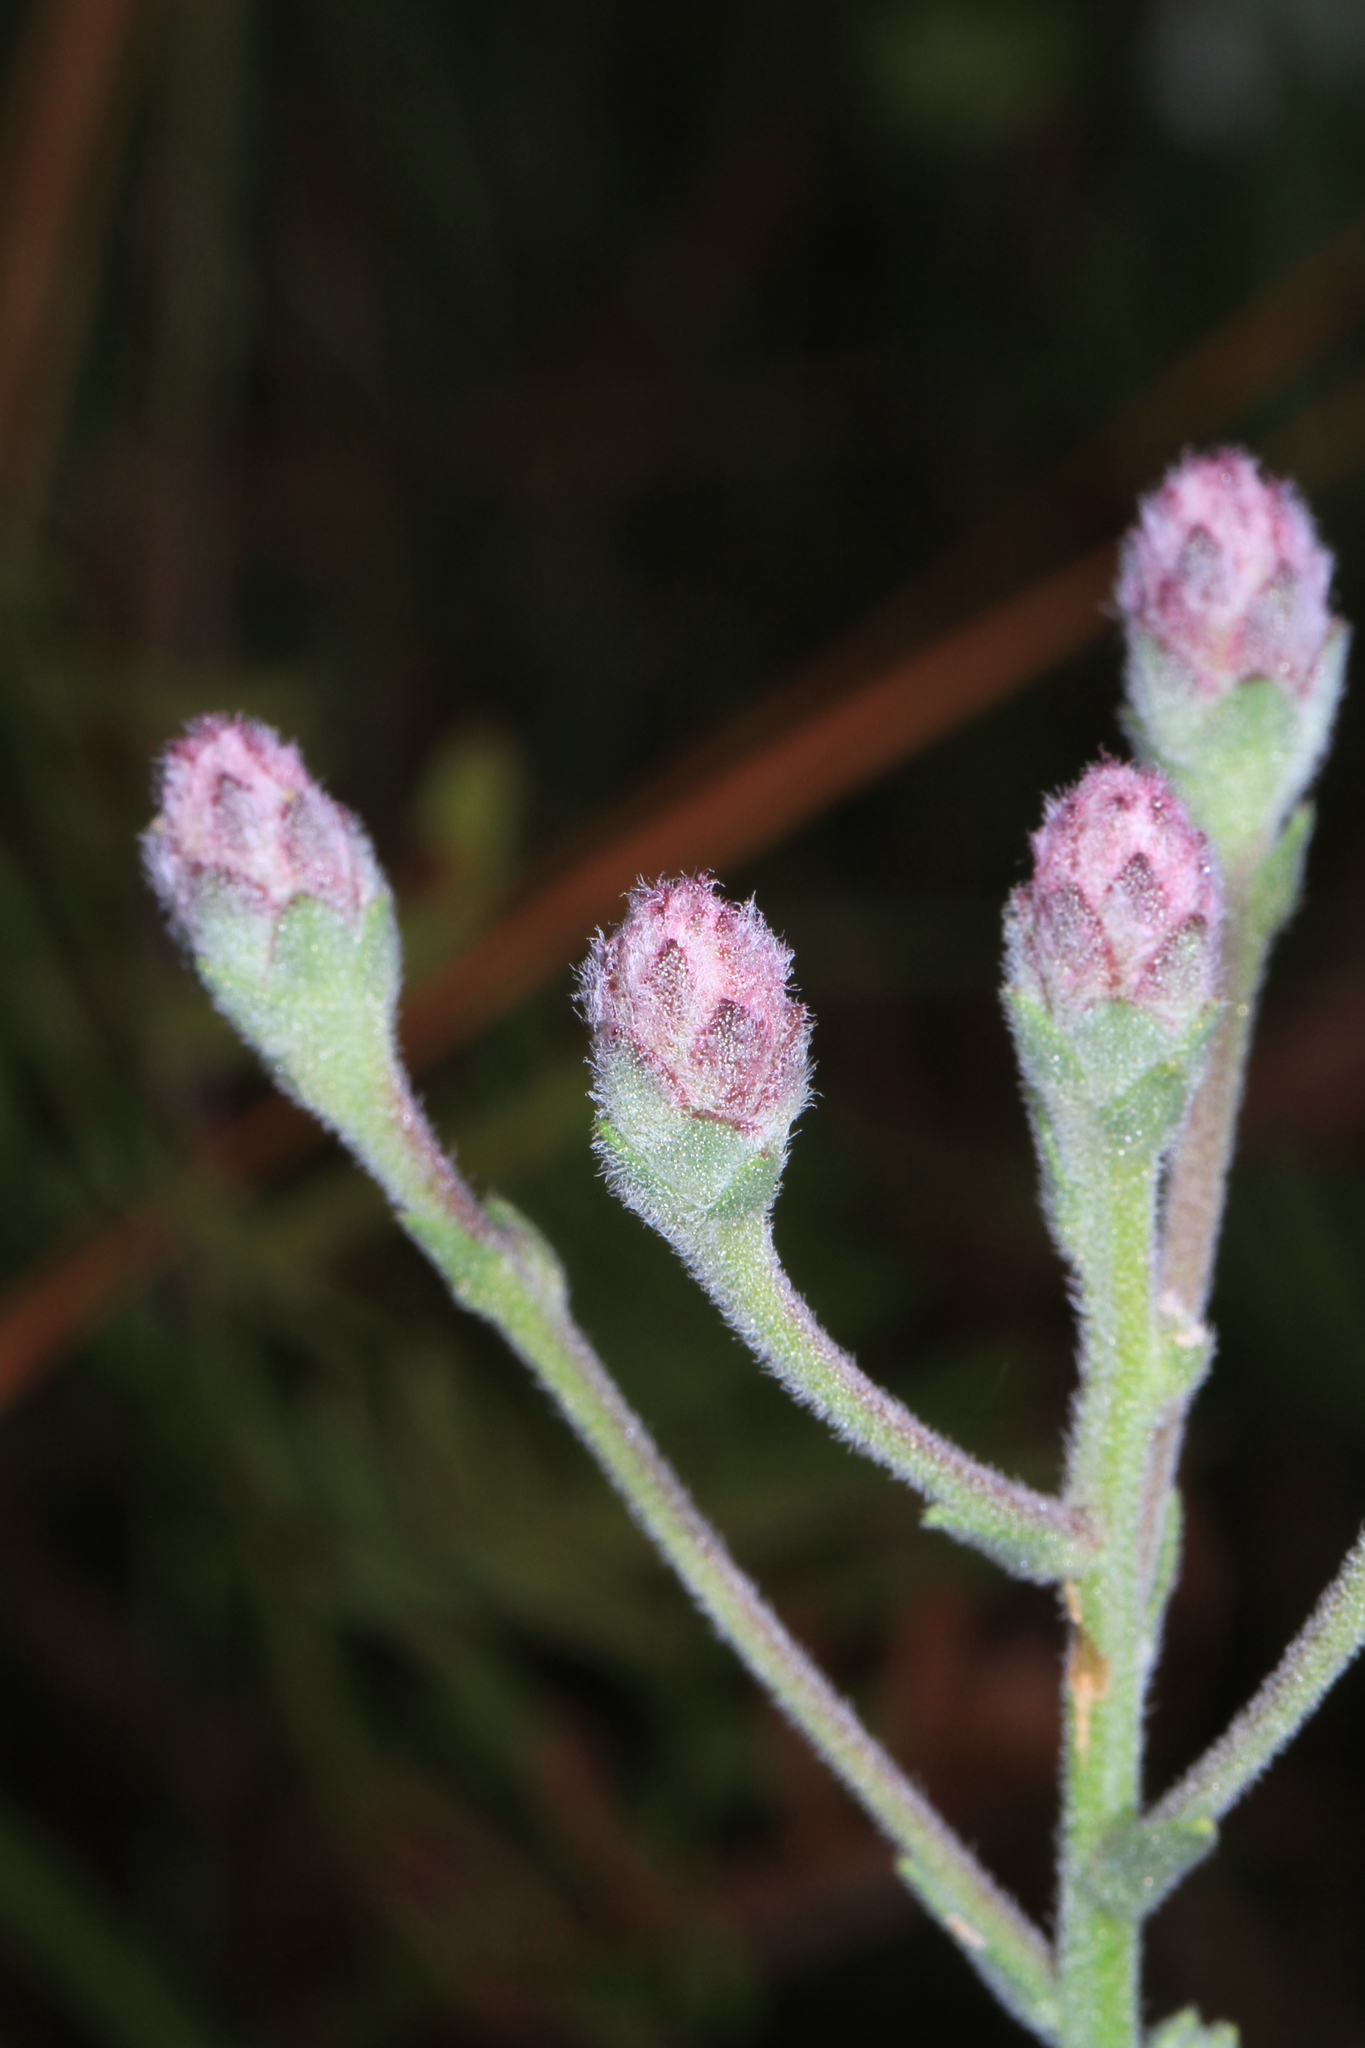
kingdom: Plantae
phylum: Tracheophyta
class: Magnoliopsida
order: Asterales
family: Asteraceae
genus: Carphephorus
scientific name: Carphephorus tomentosus
